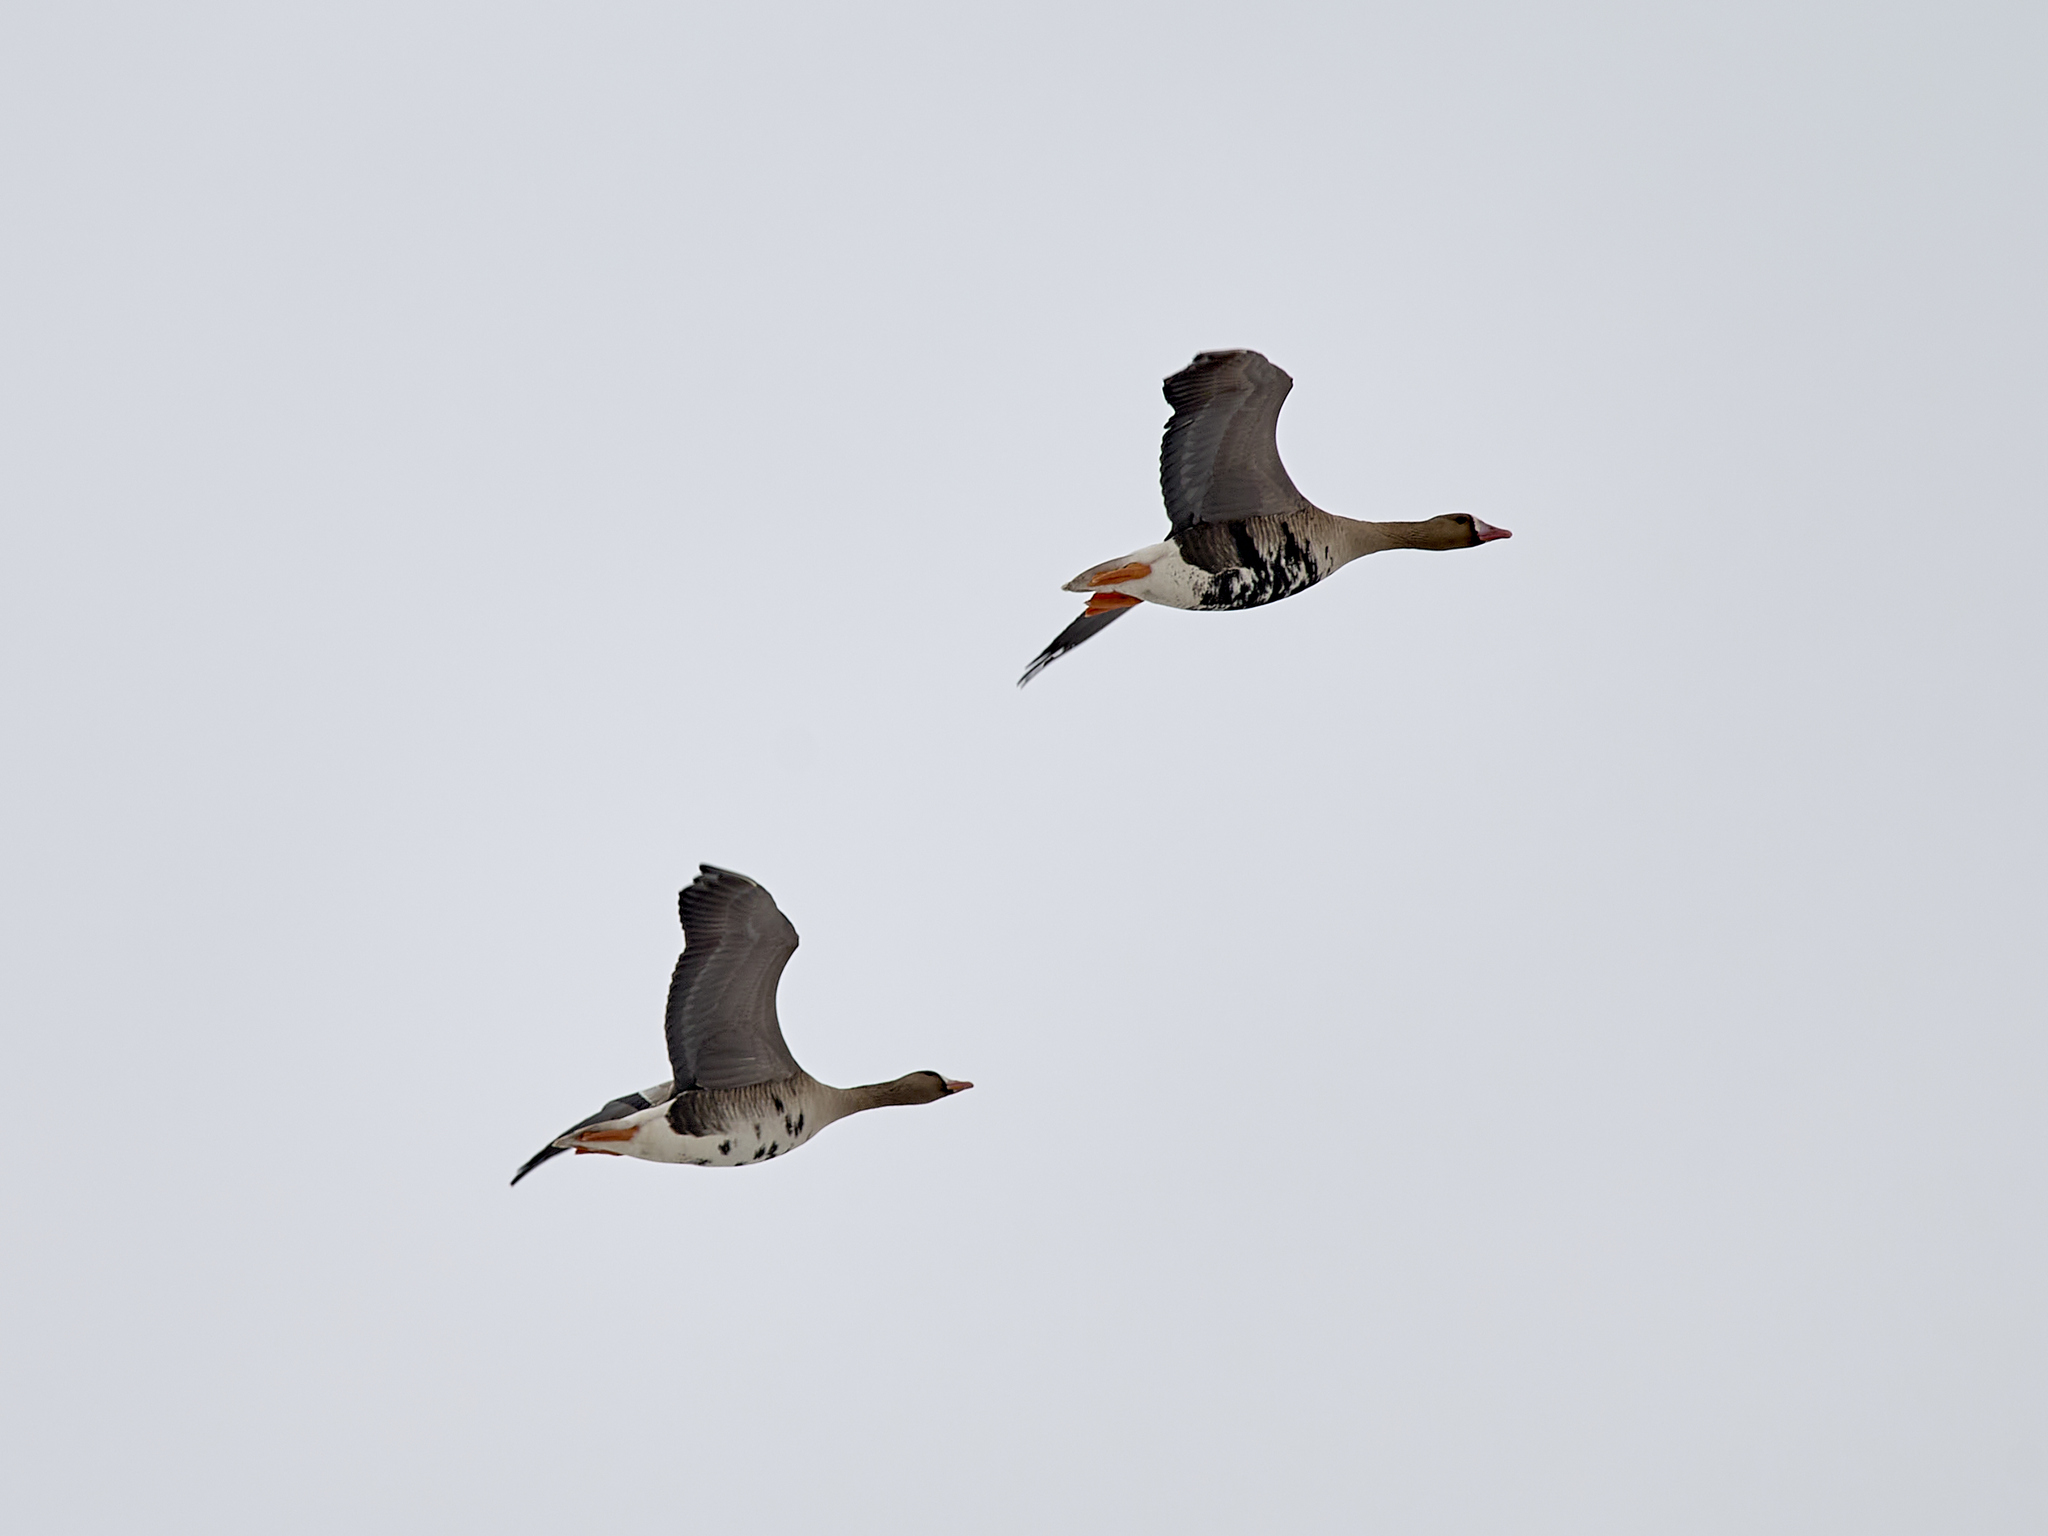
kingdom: Animalia
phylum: Chordata
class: Aves
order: Anseriformes
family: Anatidae
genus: Anser
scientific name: Anser albifrons
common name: Greater white-fronted goose
